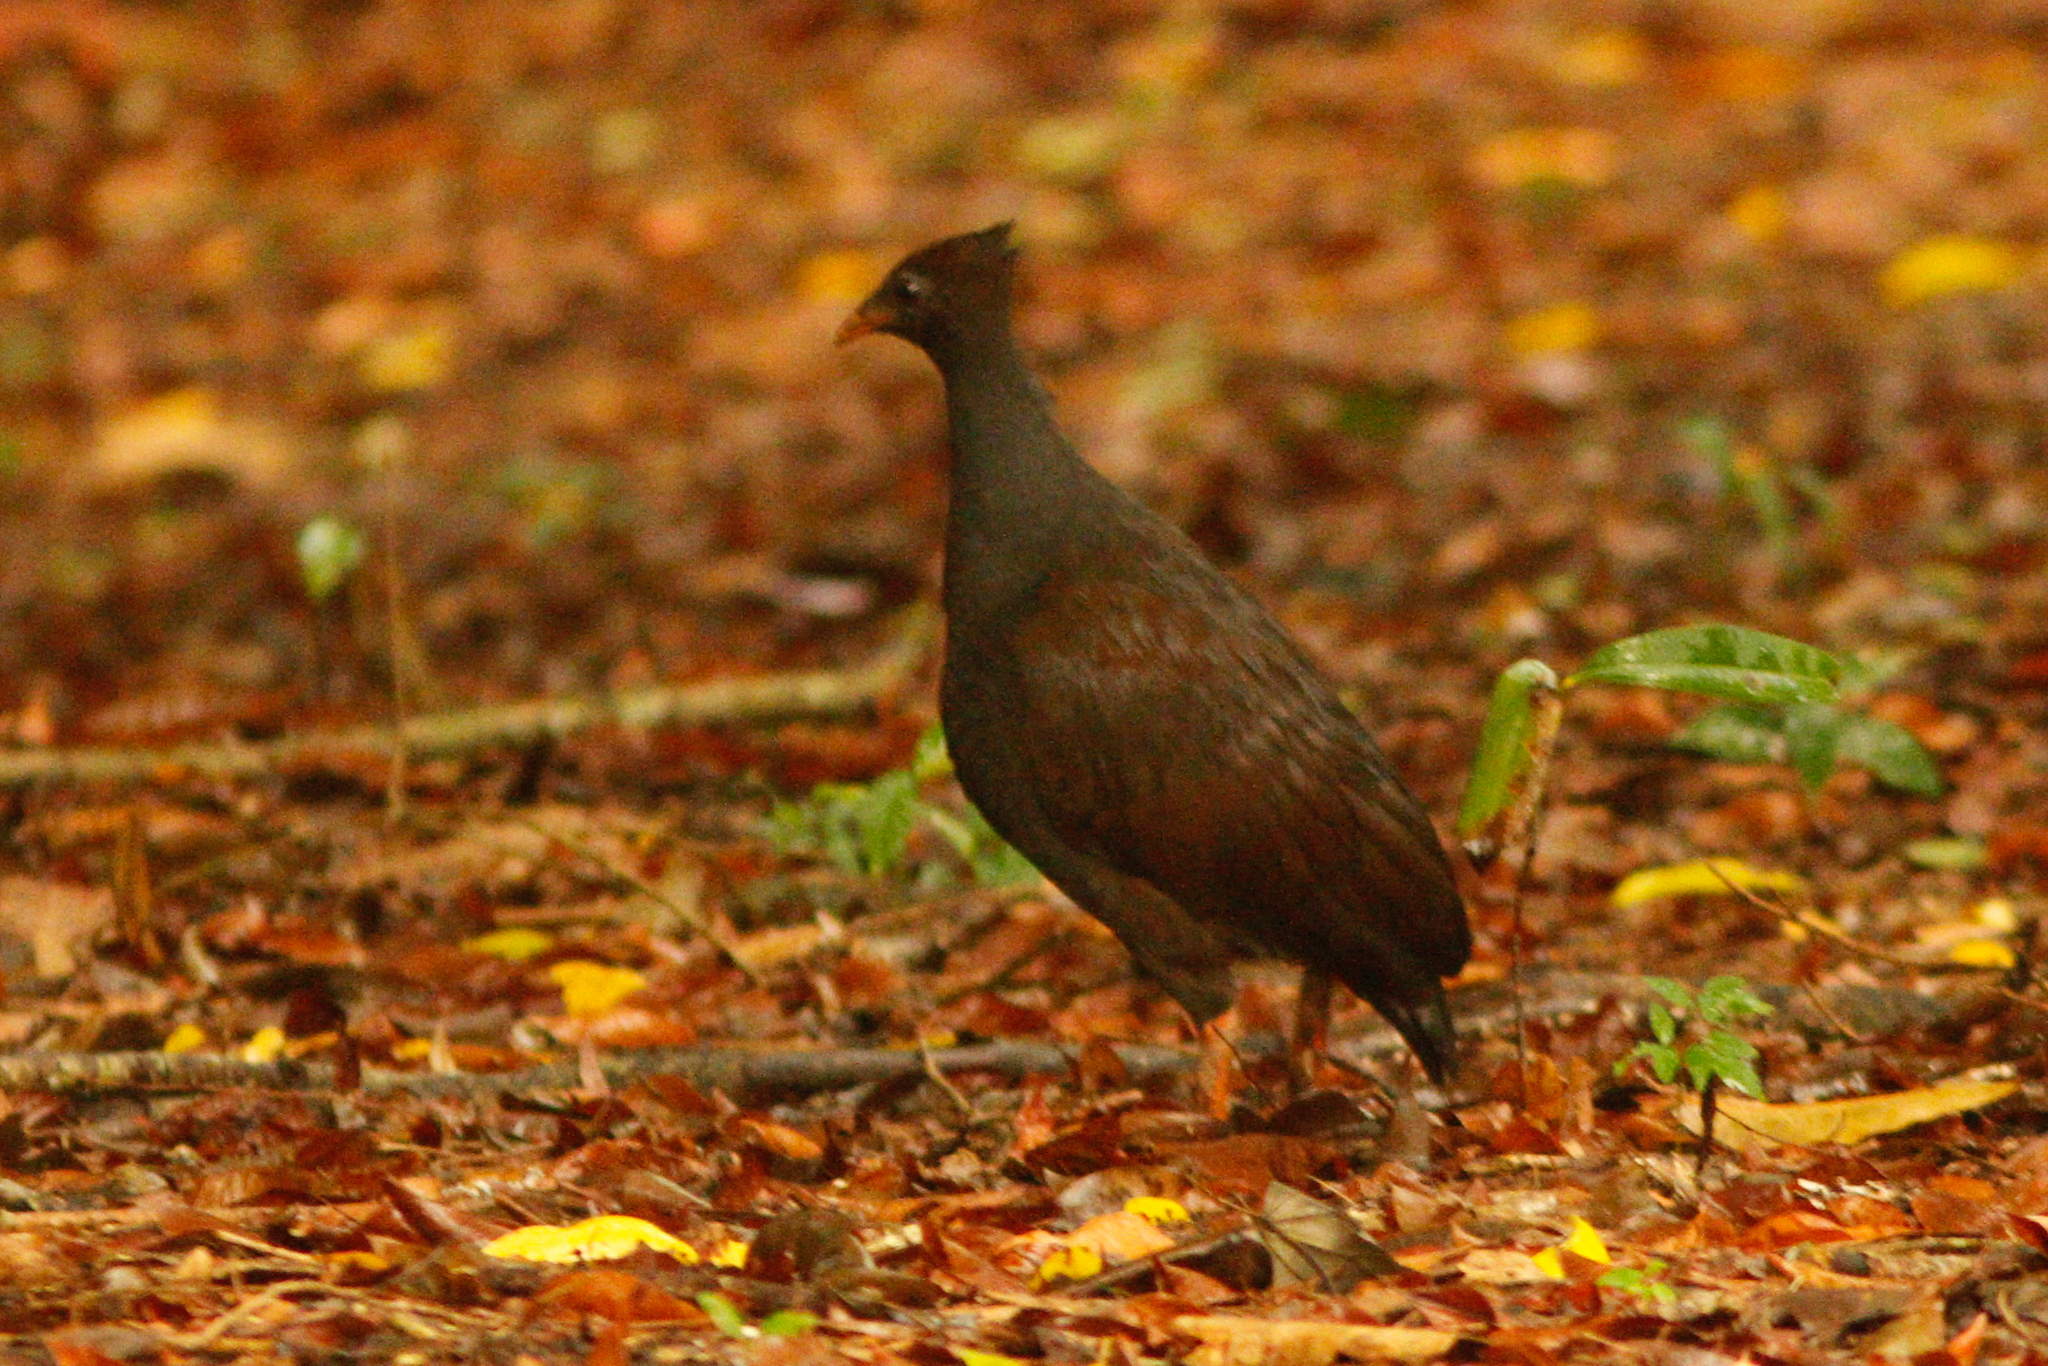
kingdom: Animalia
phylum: Chordata
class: Aves
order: Galliformes
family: Megapodiidae
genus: Megapodius
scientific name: Megapodius reinwardt
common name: Orange-footed scrubfowl
